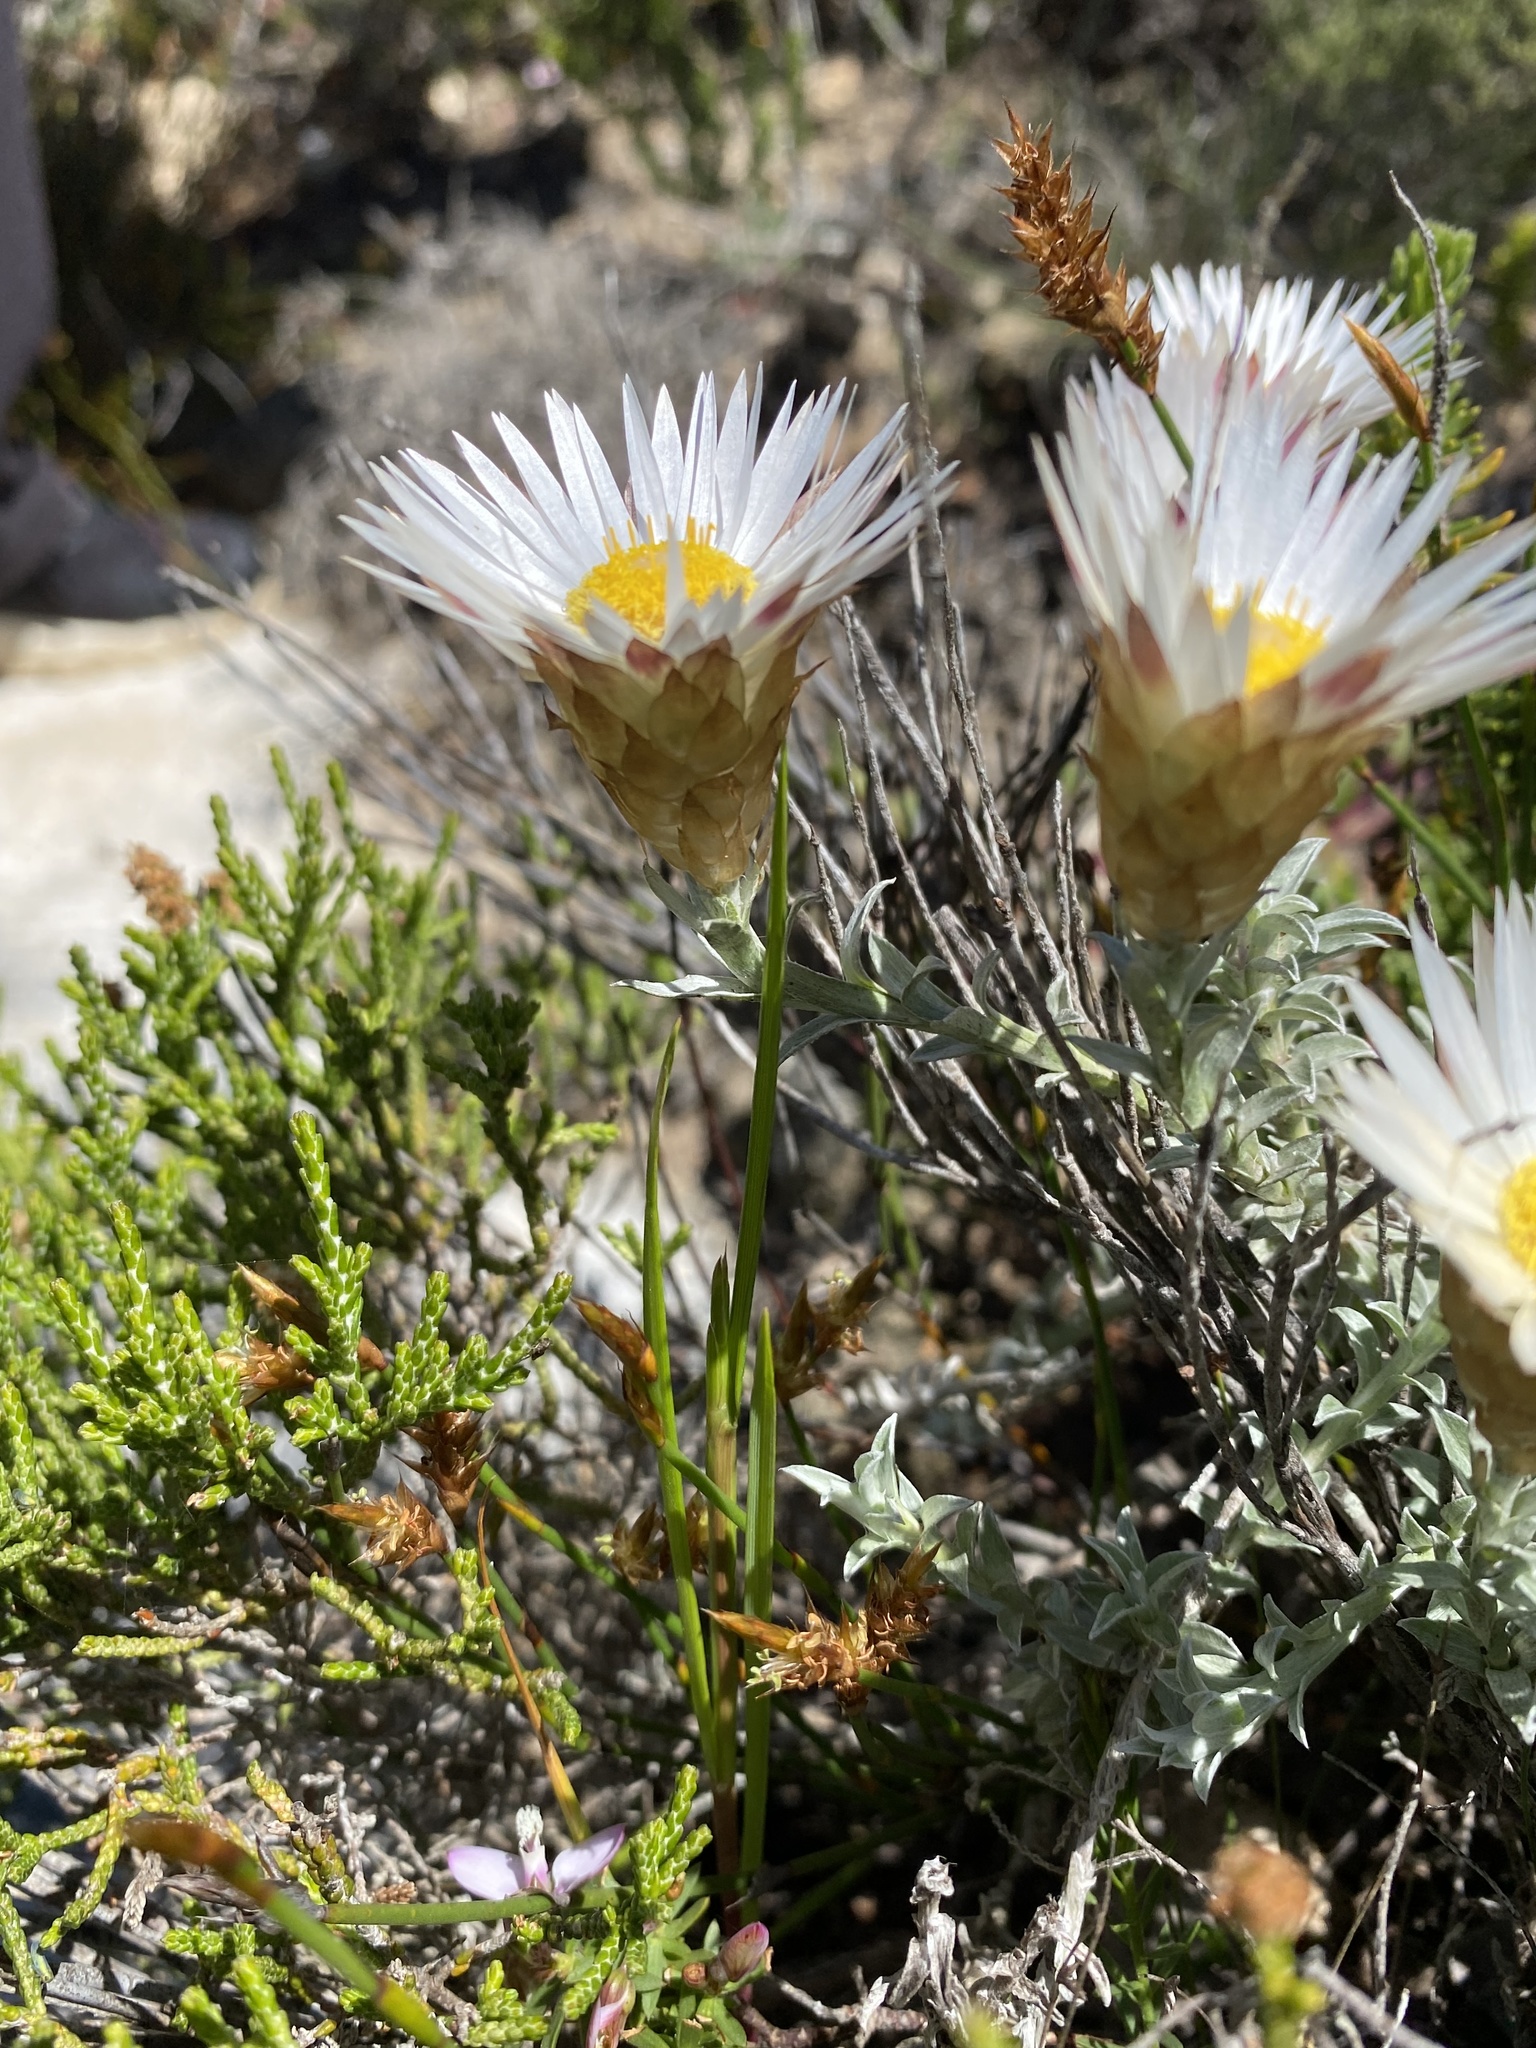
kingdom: Plantae
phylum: Tracheophyta
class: Magnoliopsida
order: Asterales
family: Asteraceae
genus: Helichrysum
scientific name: Helichrysum retortum
